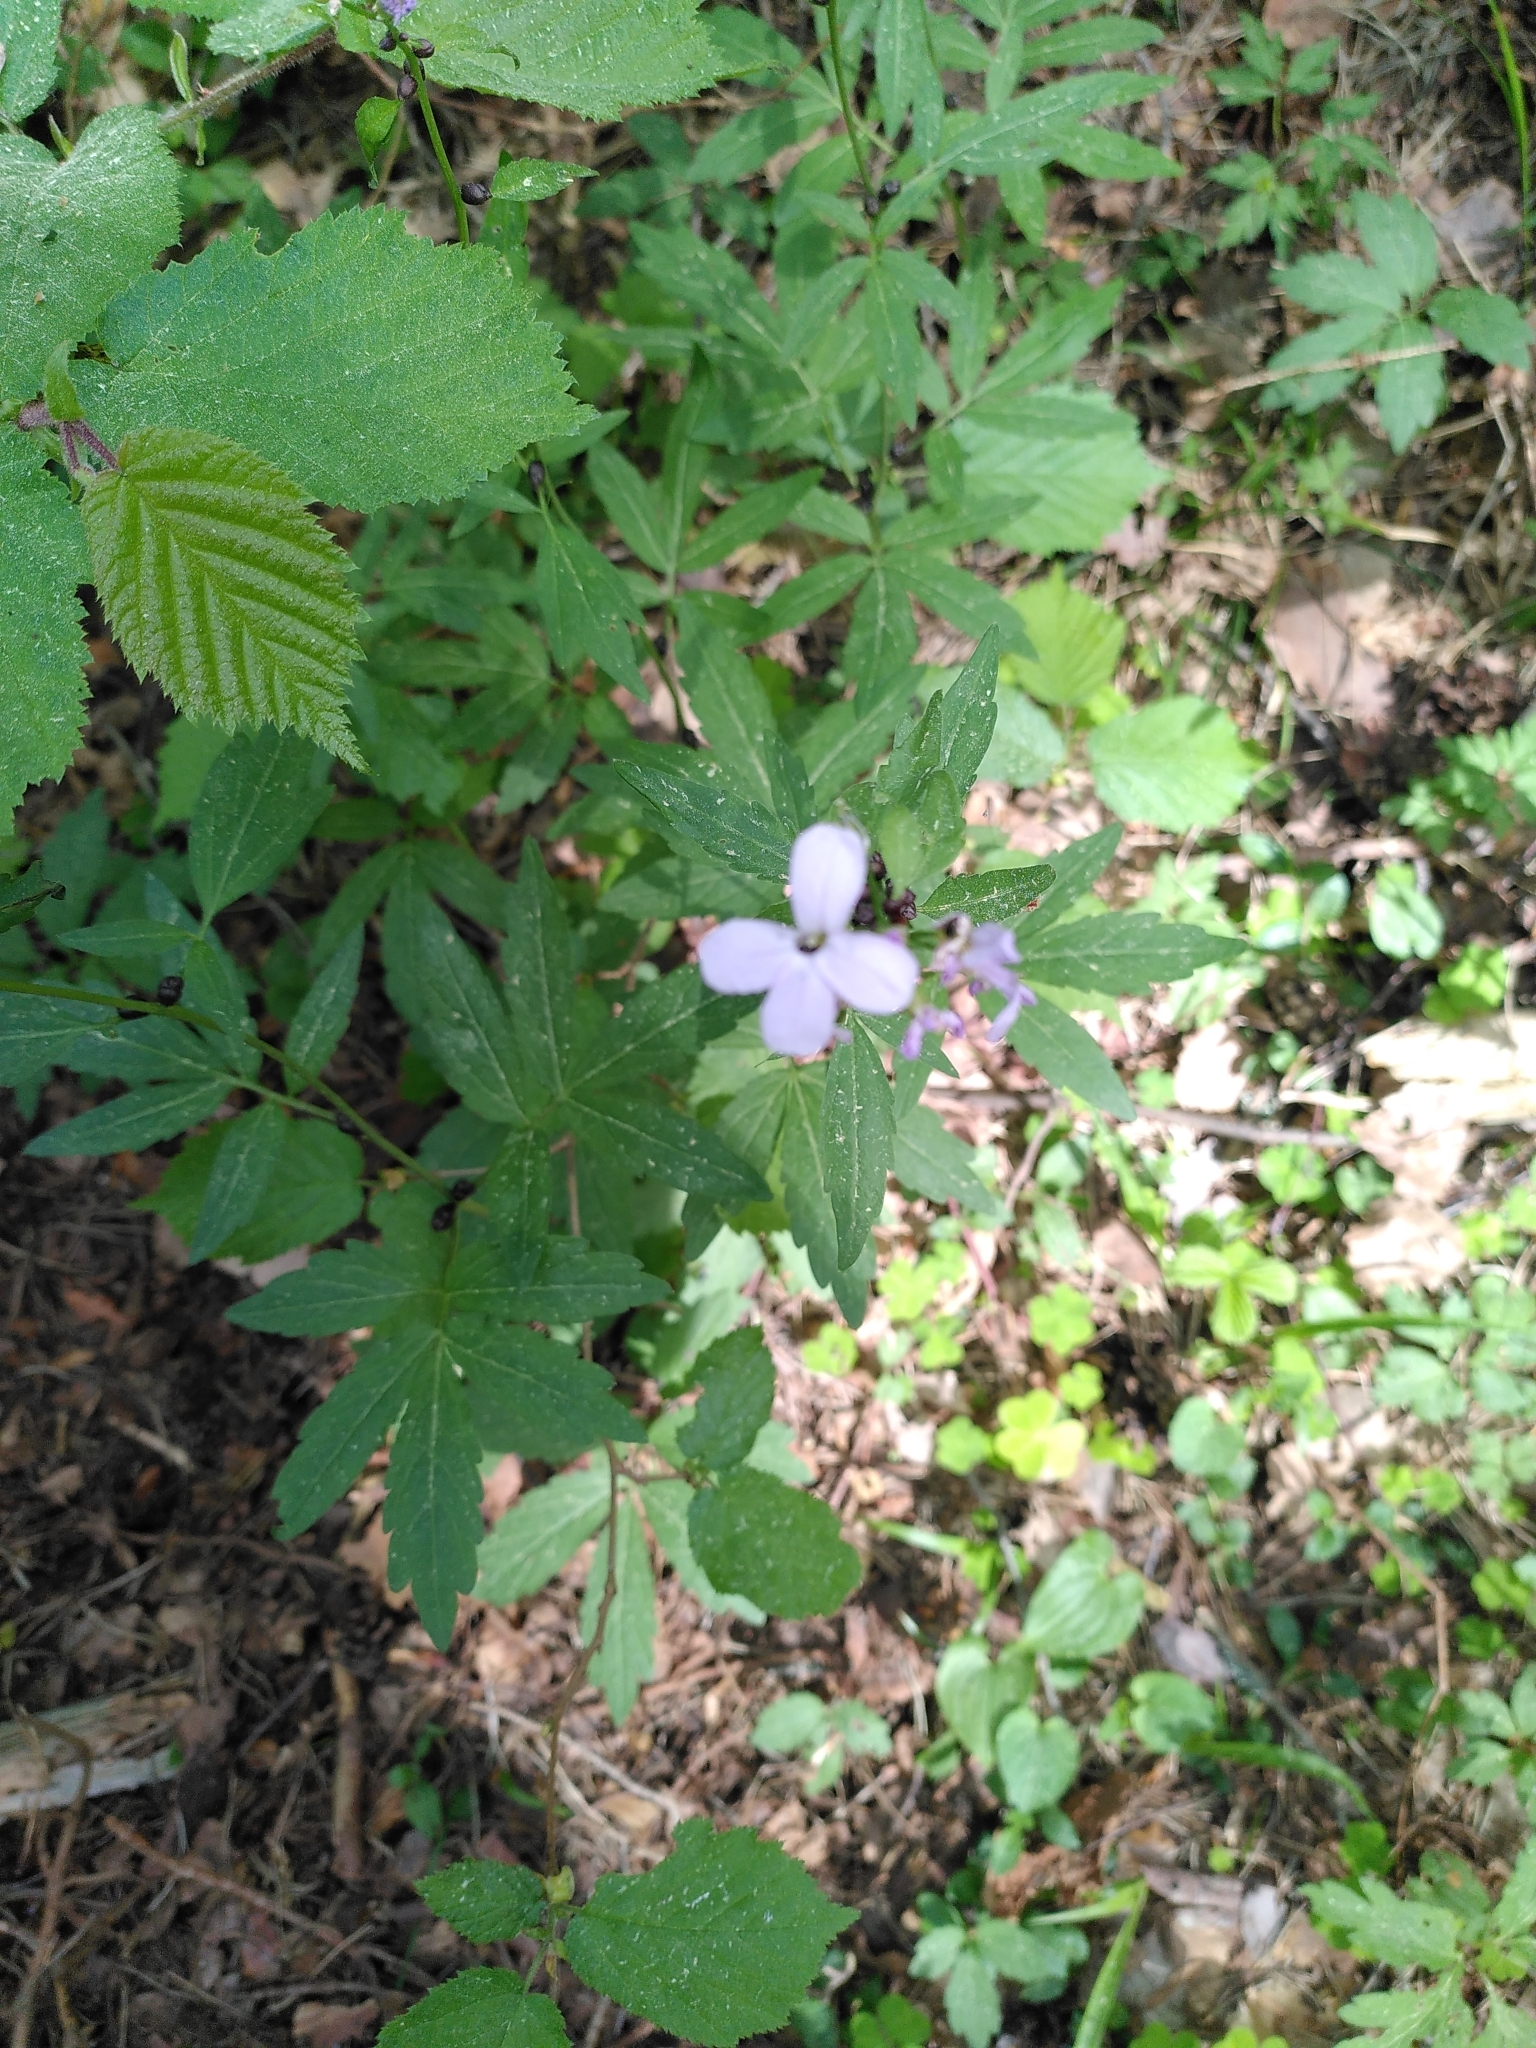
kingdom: Plantae
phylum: Tracheophyta
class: Magnoliopsida
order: Brassicales
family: Brassicaceae
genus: Cardamine
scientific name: Cardamine bulbifera
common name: Coralroot bittercress
